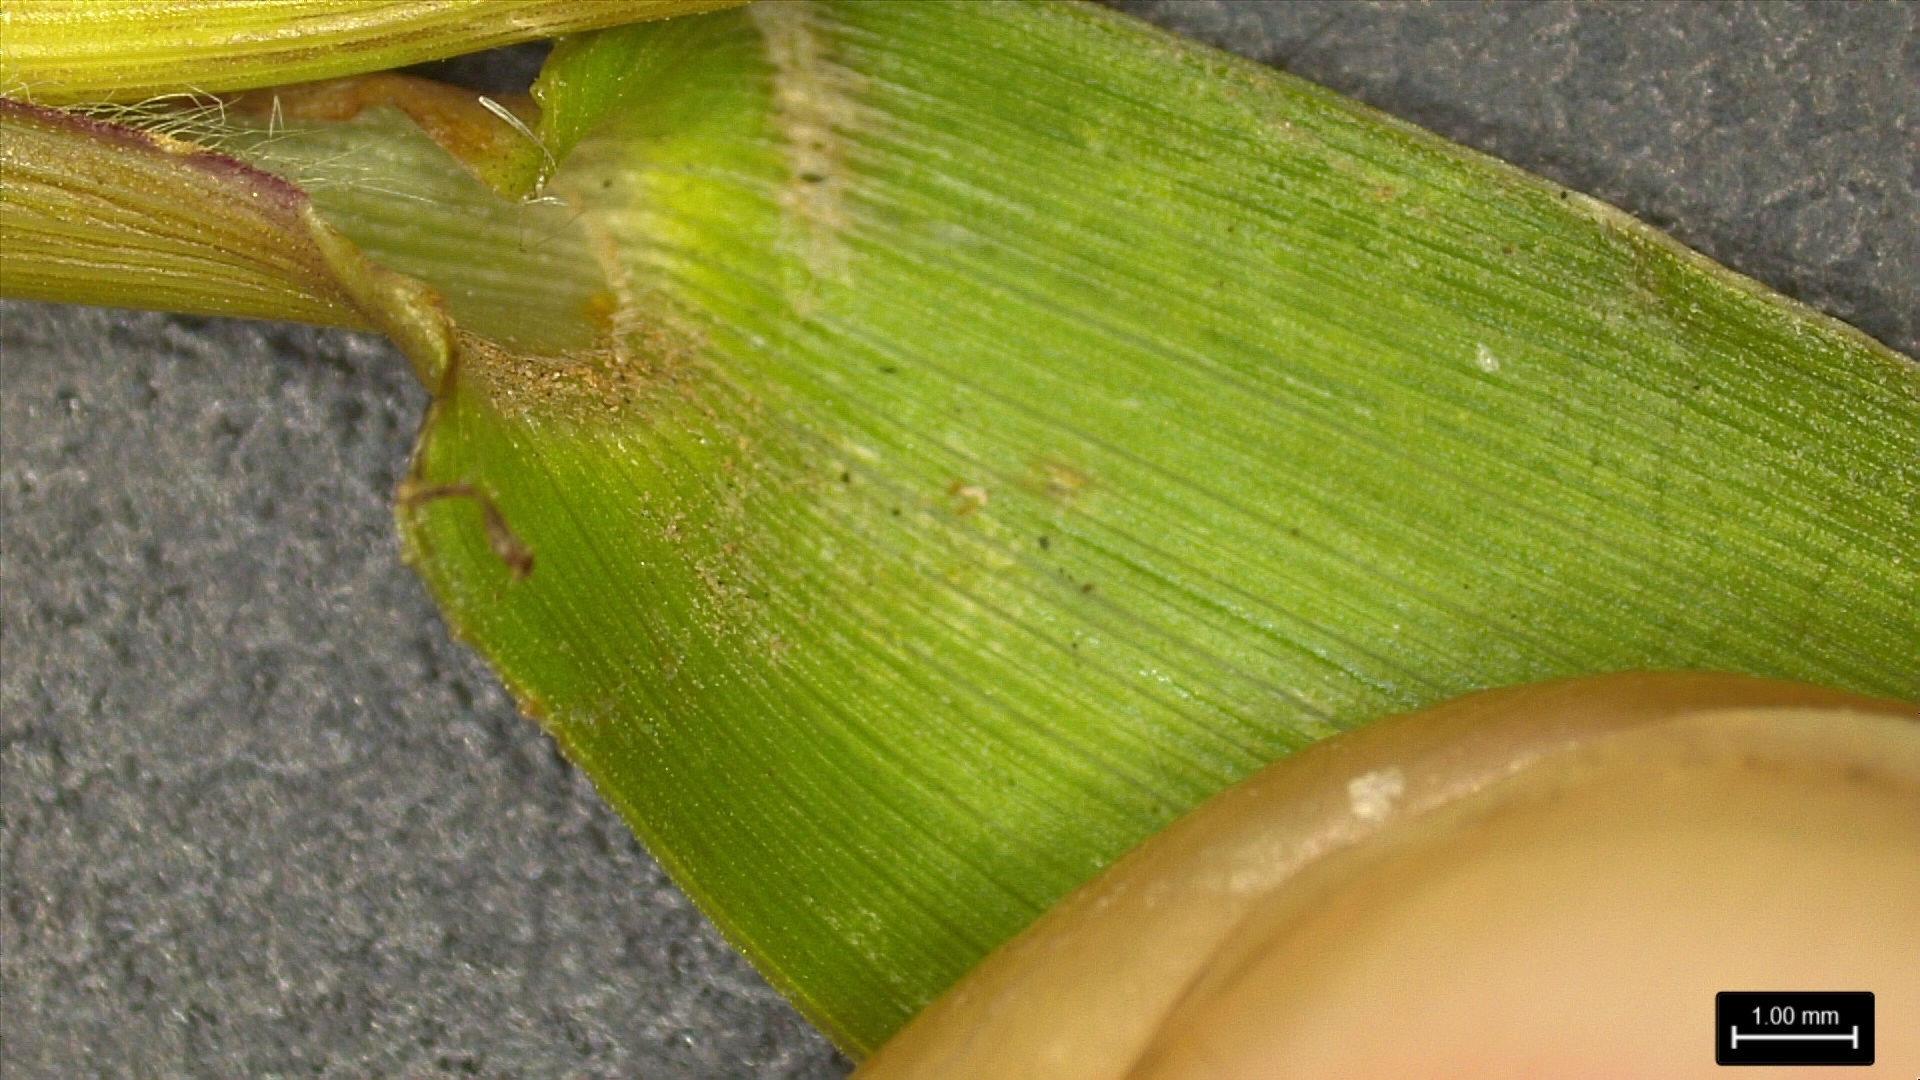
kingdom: Plantae
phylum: Tracheophyta
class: Liliopsida
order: Poales
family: Poaceae
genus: Dichanthelium
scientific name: Dichanthelium sphaerocarpon
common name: Round-fruited panicgrass
